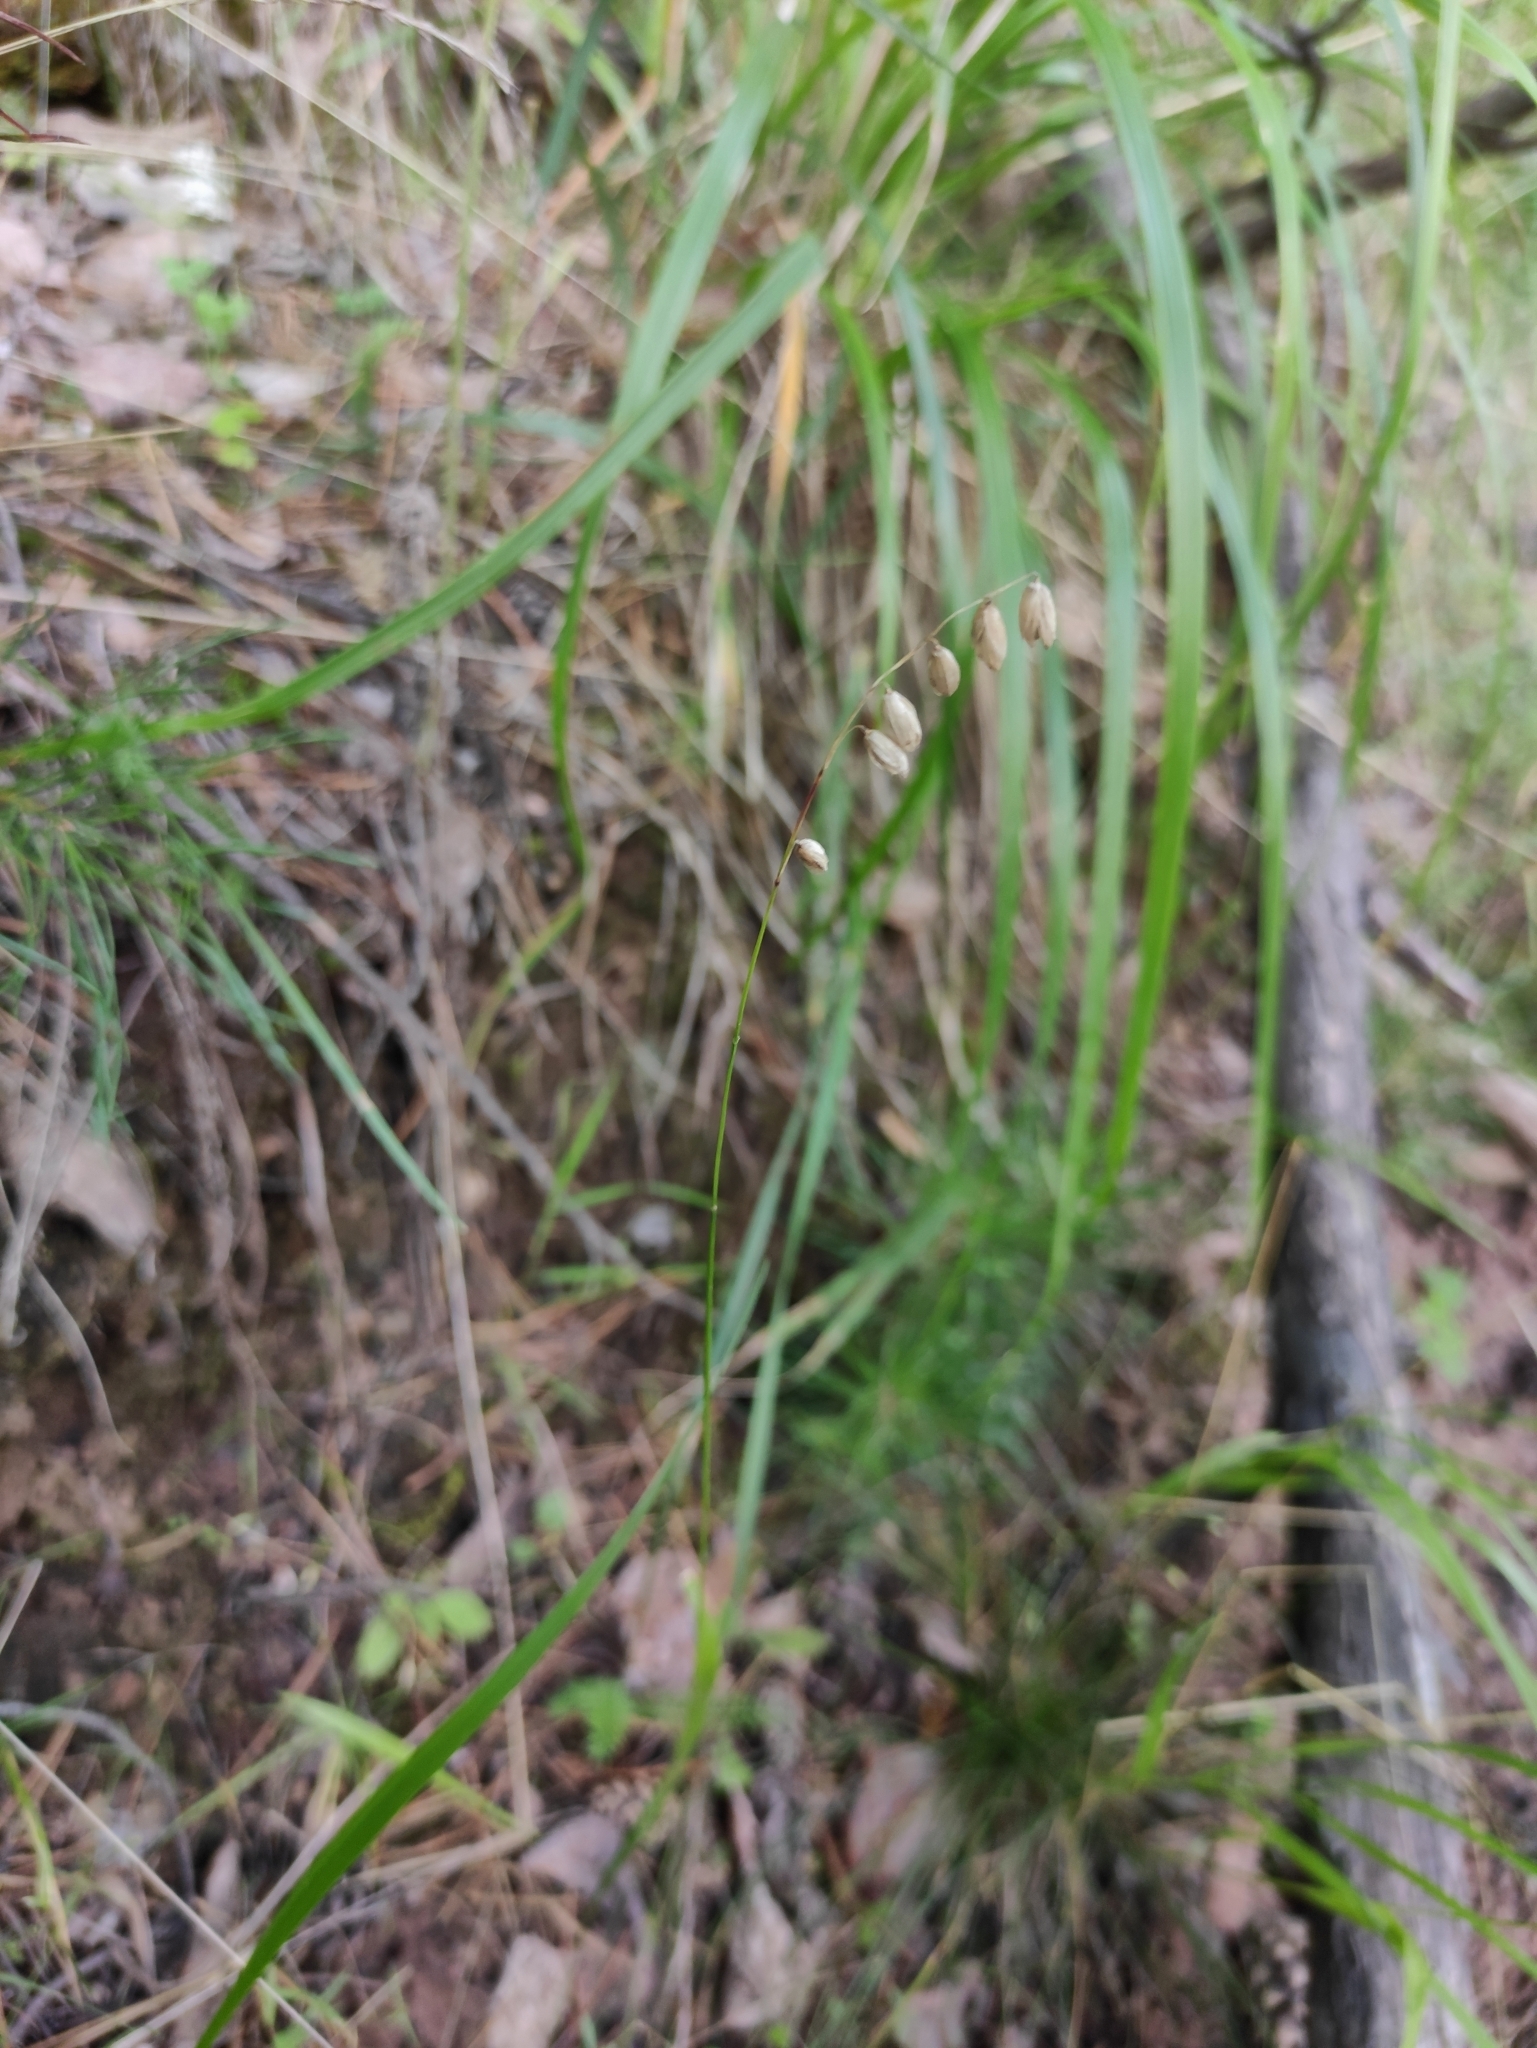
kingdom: Plantae
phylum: Tracheophyta
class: Liliopsida
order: Poales
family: Poaceae
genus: Melica
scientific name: Melica nutans
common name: Mountain melick
